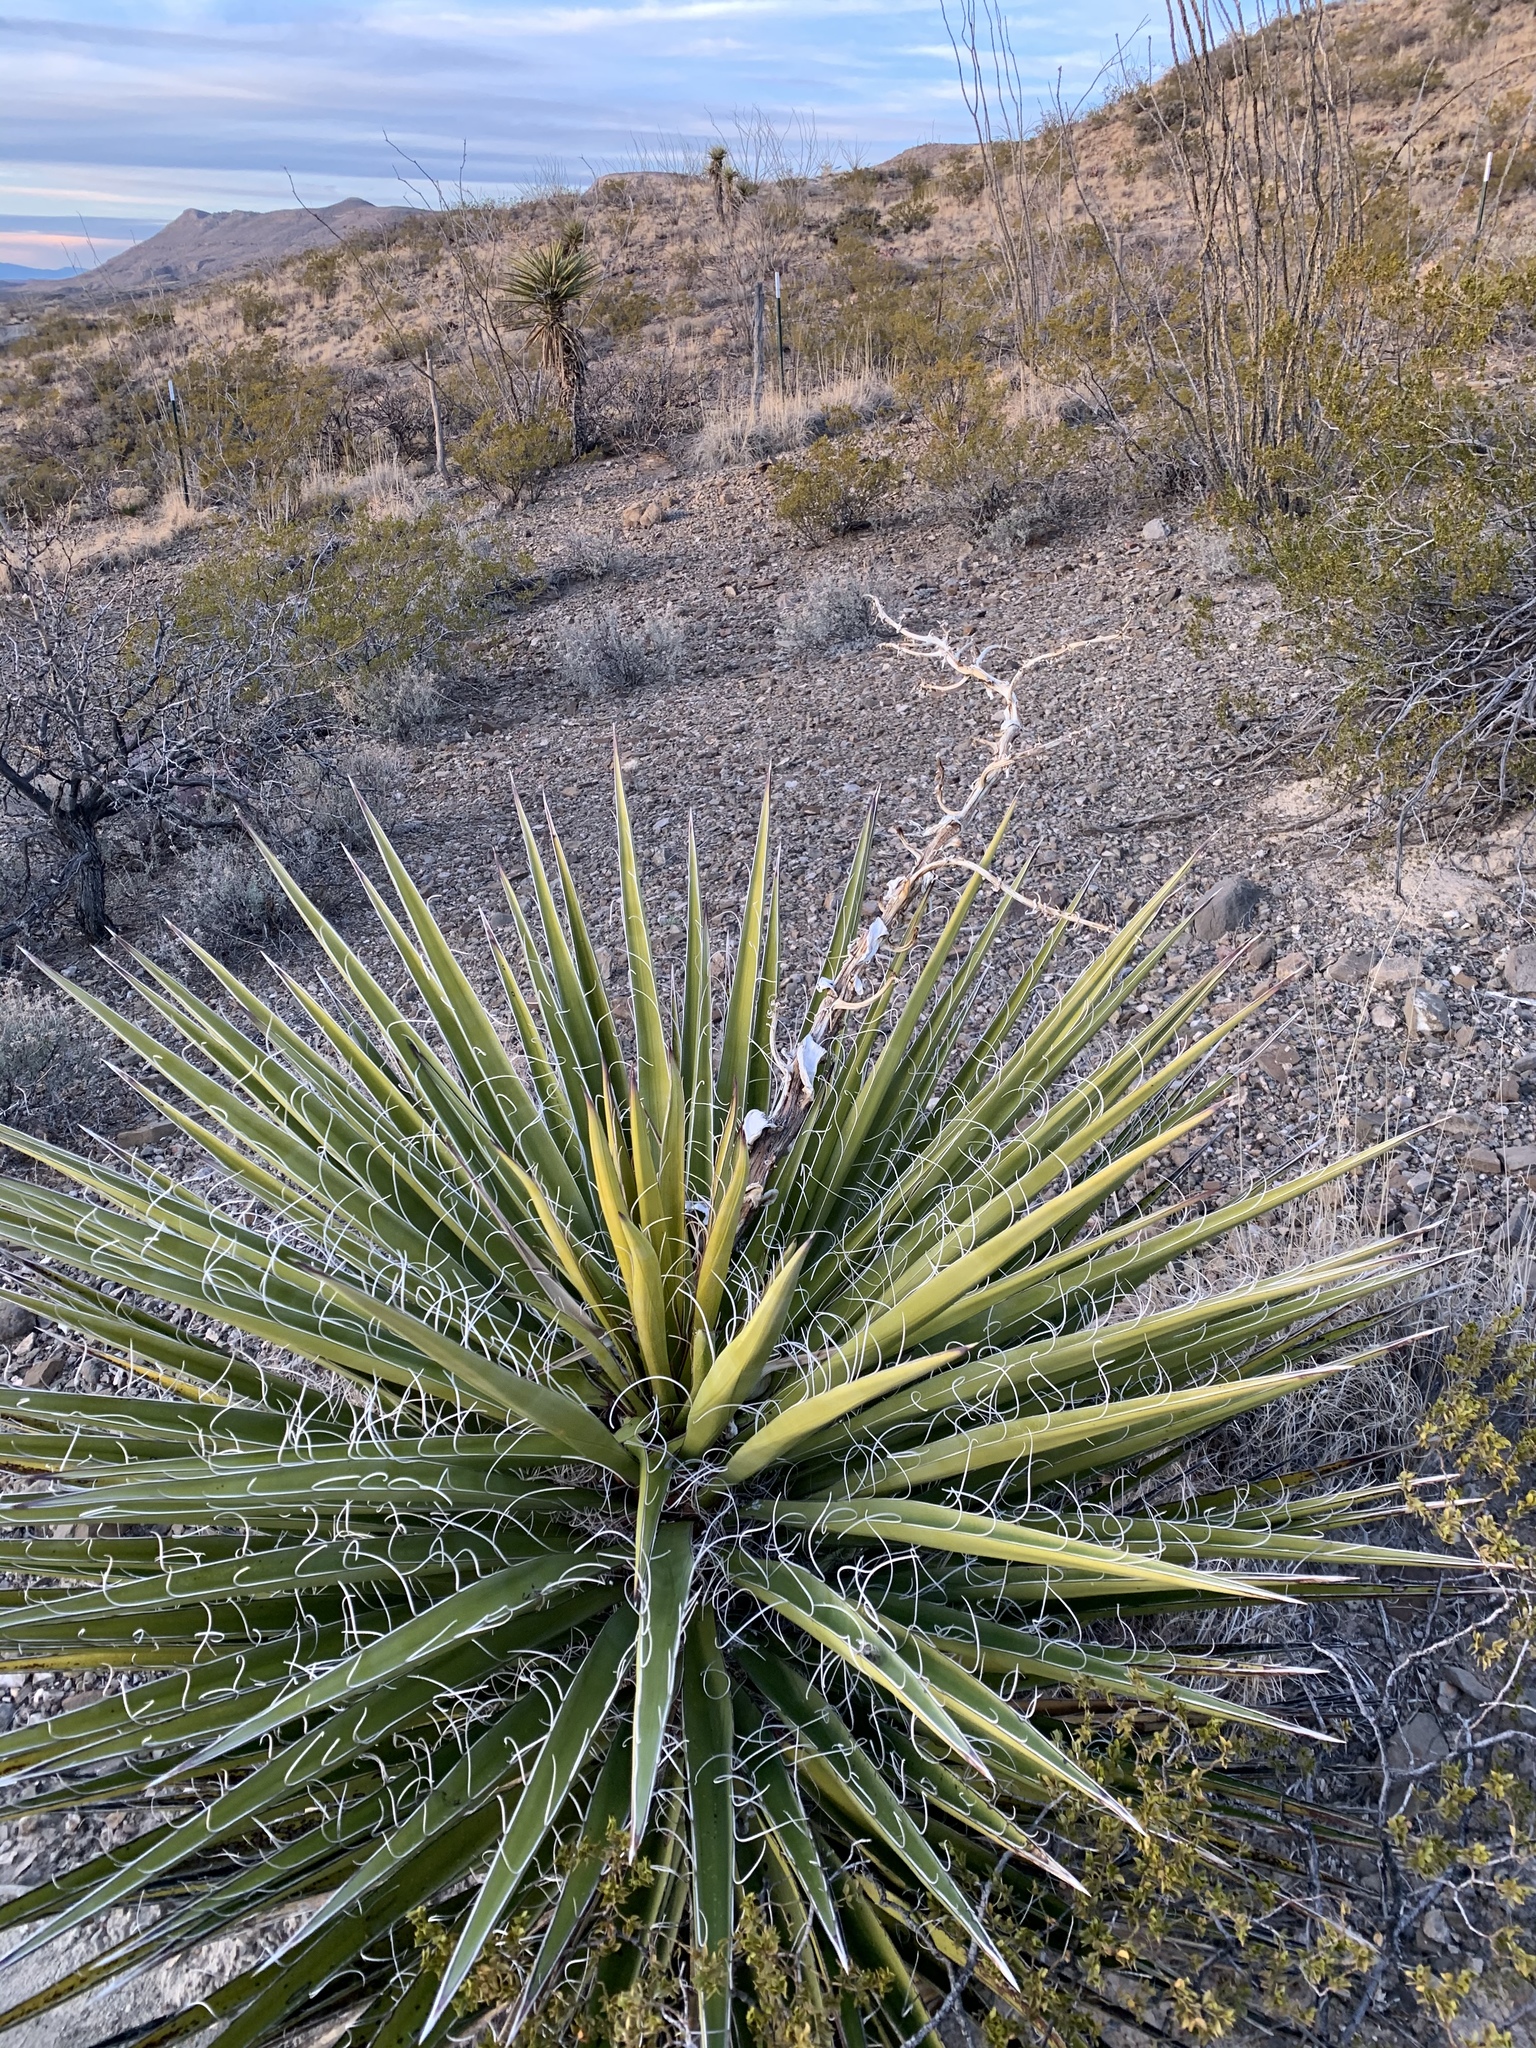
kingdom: Plantae
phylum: Tracheophyta
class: Liliopsida
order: Asparagales
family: Asparagaceae
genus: Yucca
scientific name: Yucca treculiana
